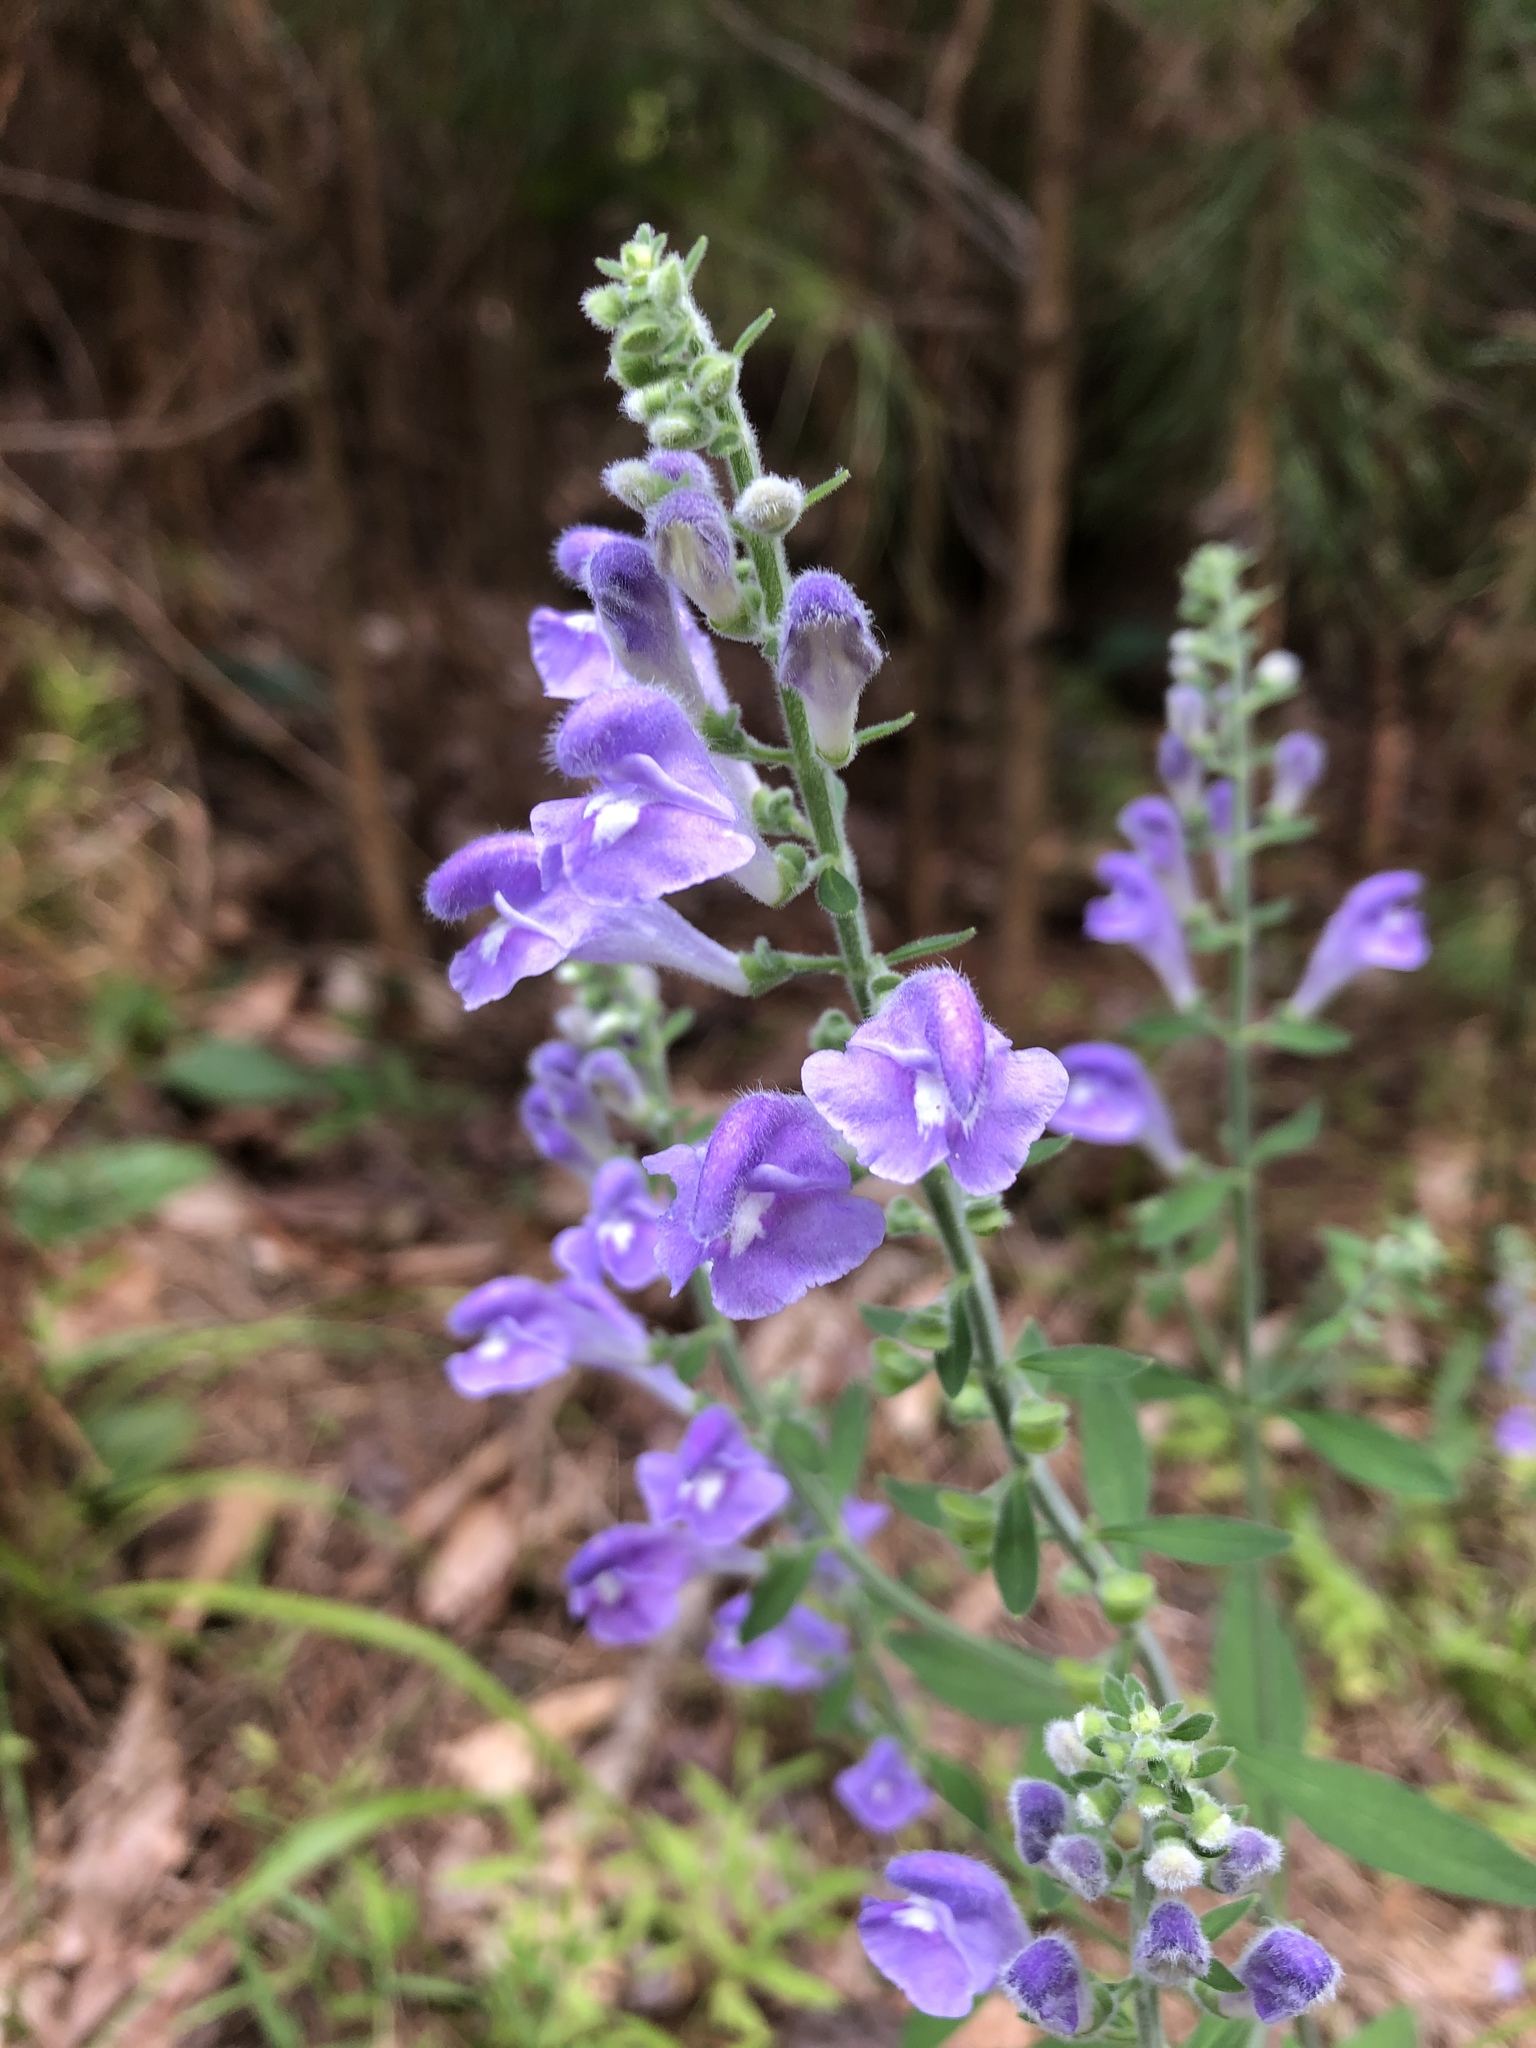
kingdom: Plantae
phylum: Tracheophyta
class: Magnoliopsida
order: Lamiales
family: Lamiaceae
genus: Scutellaria
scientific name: Scutellaria integrifolia
